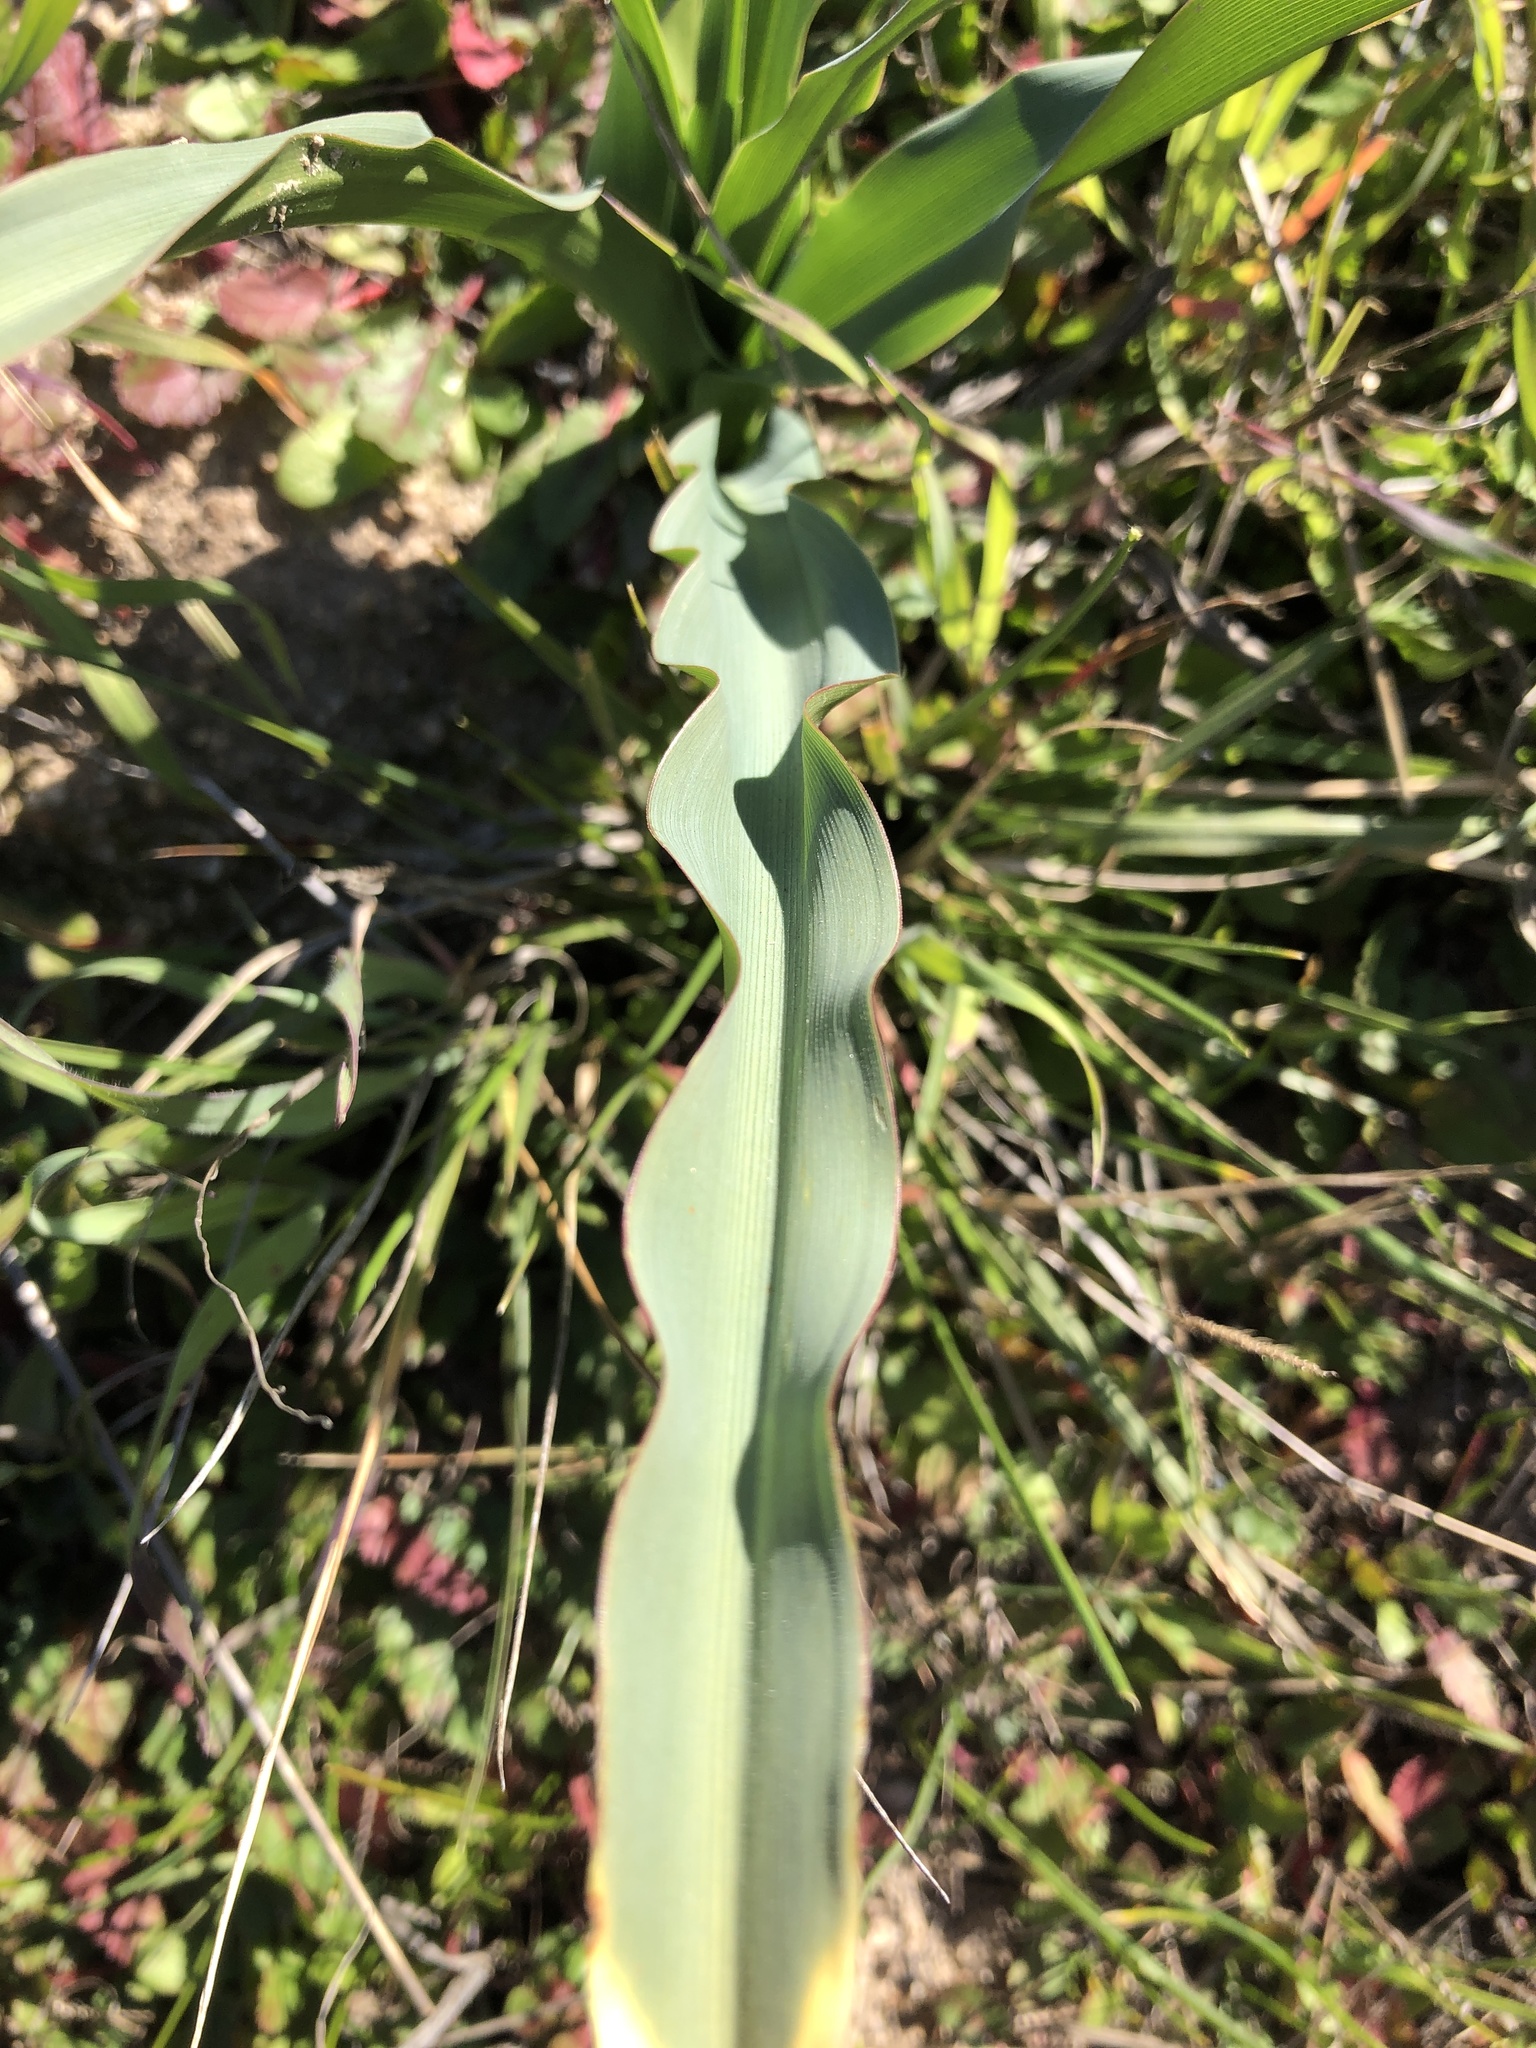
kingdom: Plantae
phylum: Tracheophyta
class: Liliopsida
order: Asparagales
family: Asparagaceae
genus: Chlorogalum
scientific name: Chlorogalum pomeridianum
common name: Amole
